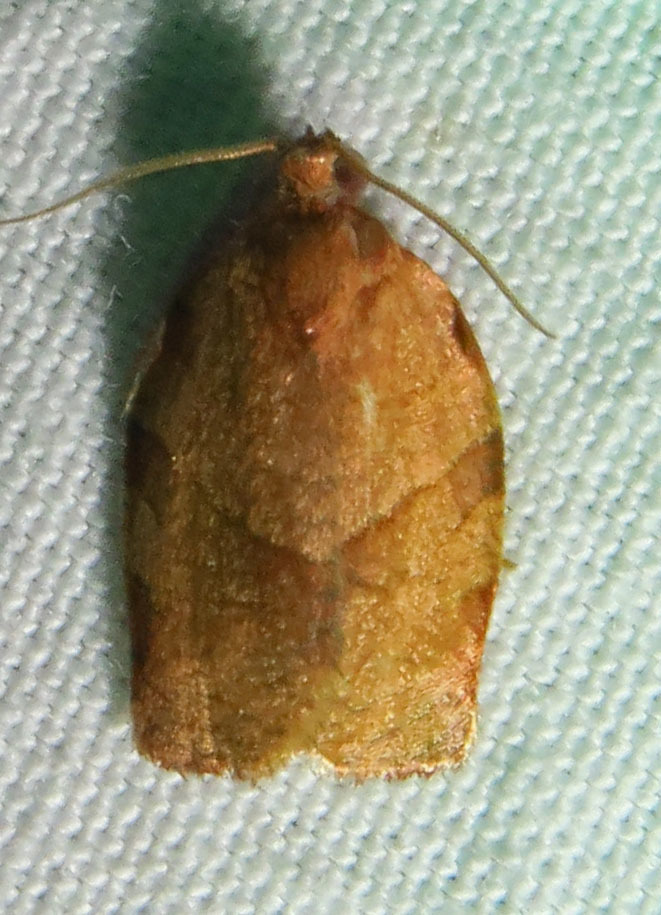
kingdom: Animalia
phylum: Arthropoda
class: Insecta
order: Lepidoptera
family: Tortricidae
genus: Choristoneura
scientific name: Choristoneura rosaceana
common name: Oblique-banded leafroller moth
